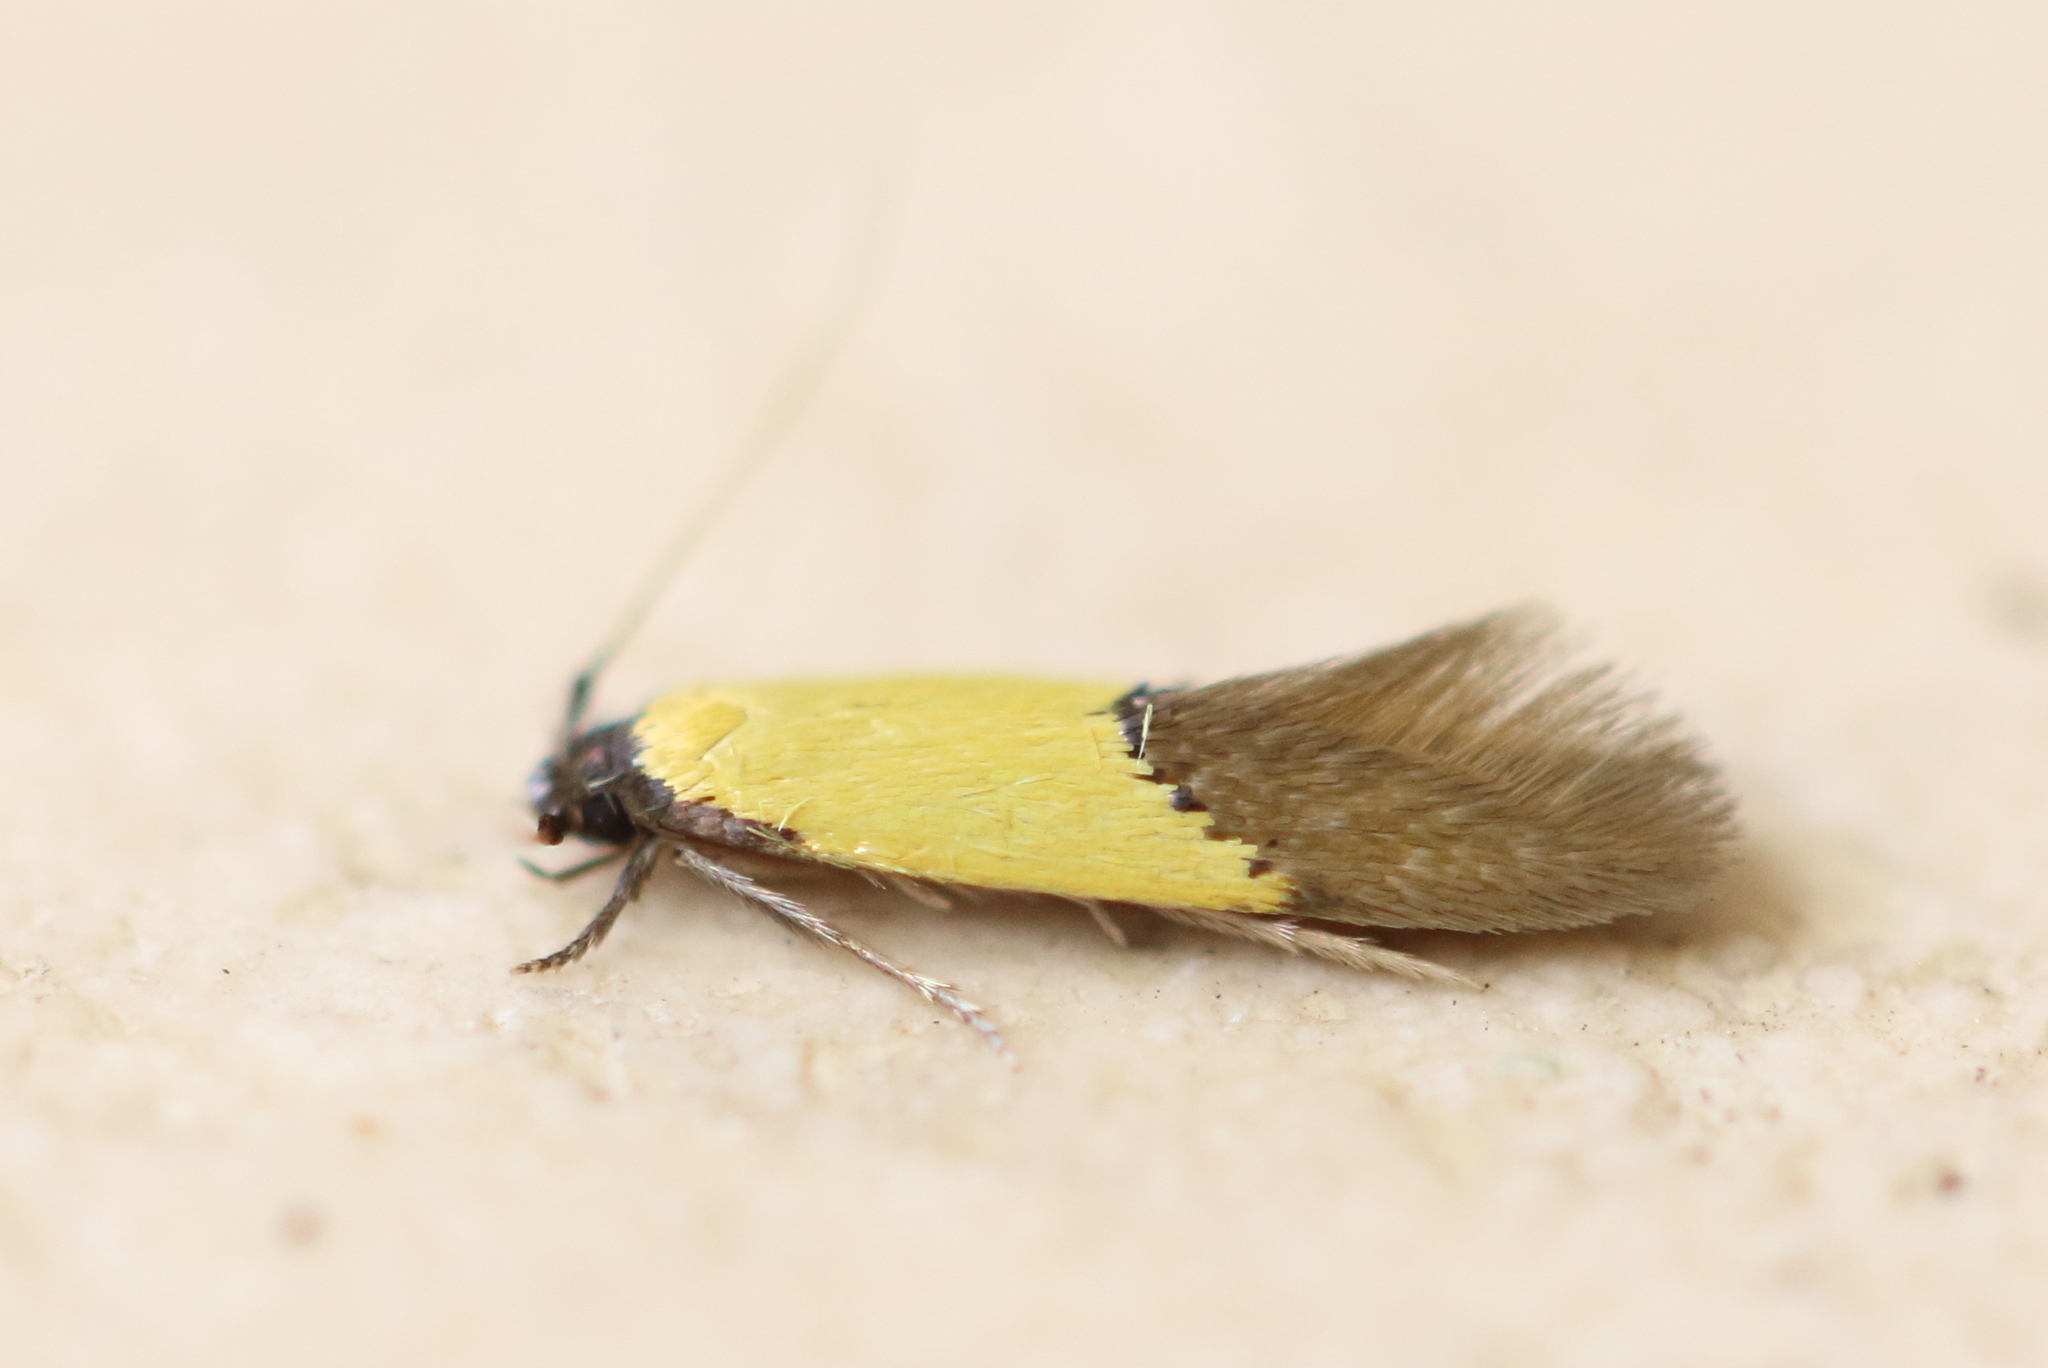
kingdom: Animalia
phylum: Arthropoda
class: Insecta
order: Lepidoptera
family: Tineidae
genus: Opogona
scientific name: Opogona protodoxa
